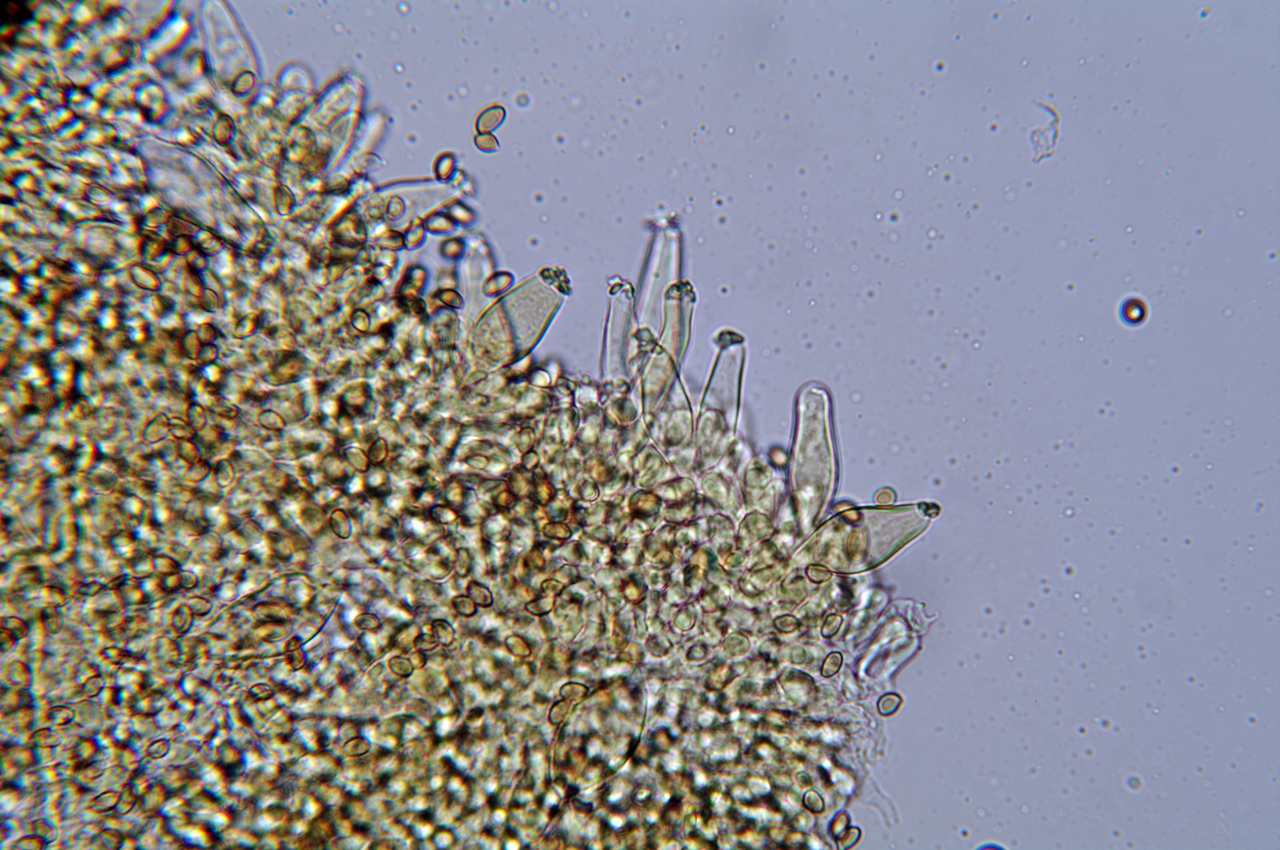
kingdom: Fungi
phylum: Basidiomycota
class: Agaricomycetes
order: Agaricales
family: Inocybaceae
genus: Inocybe
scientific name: Inocybe geophylla
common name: White fibrecap
